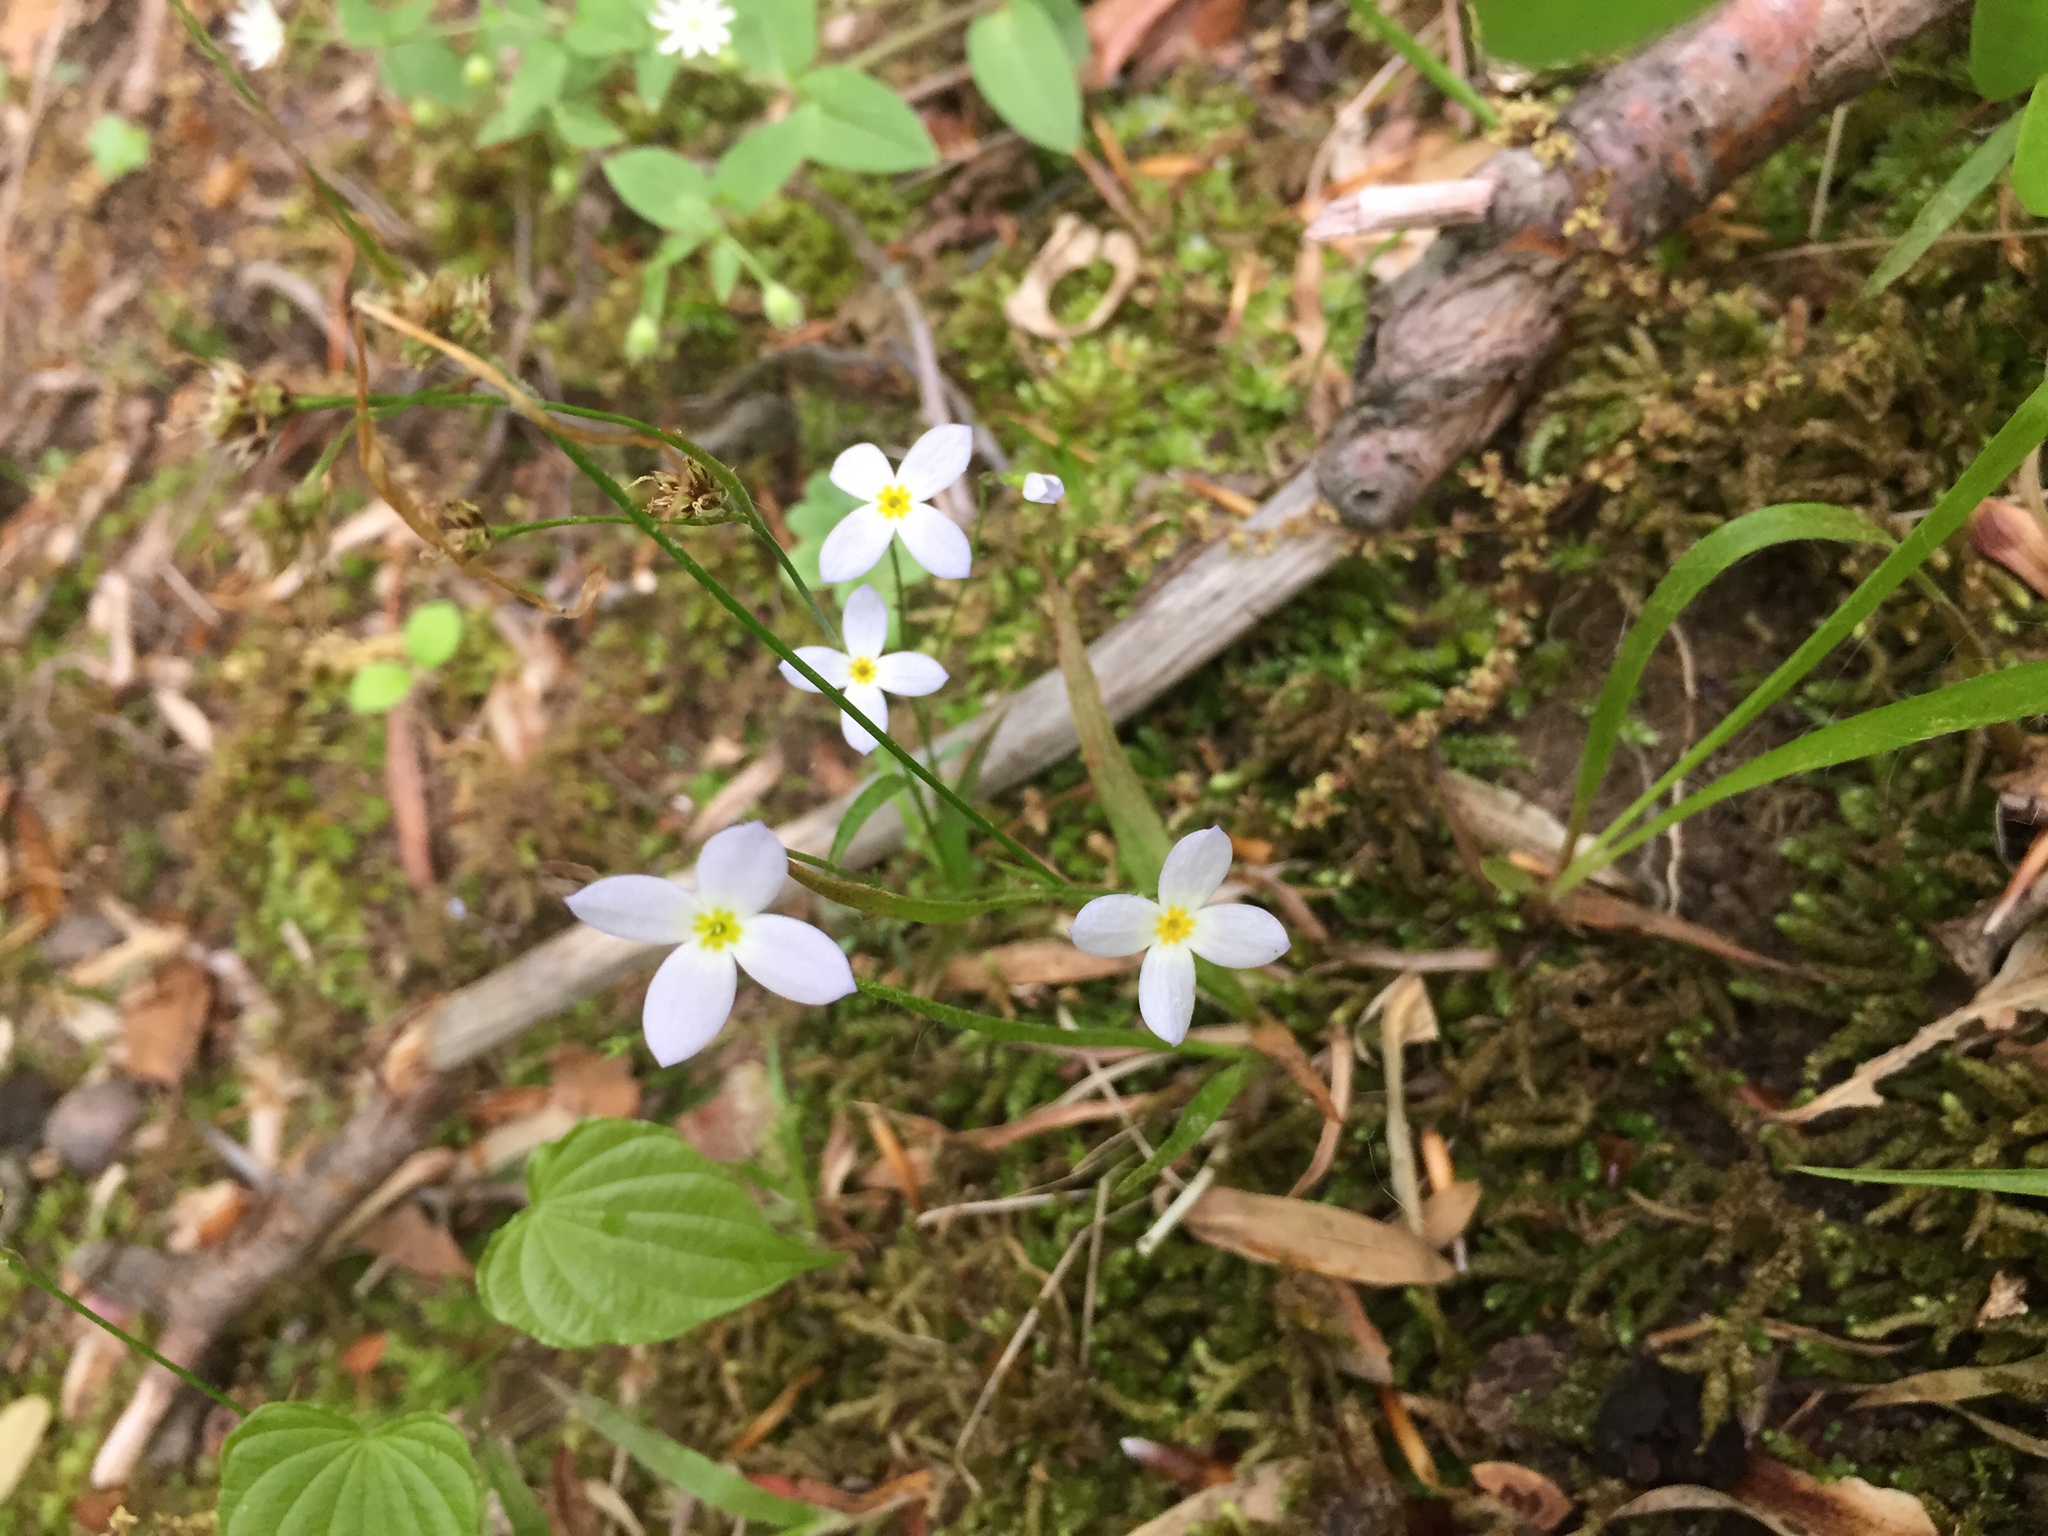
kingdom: Plantae
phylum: Tracheophyta
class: Magnoliopsida
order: Gentianales
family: Rubiaceae
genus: Houstonia
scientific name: Houstonia caerulea
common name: Bluets
